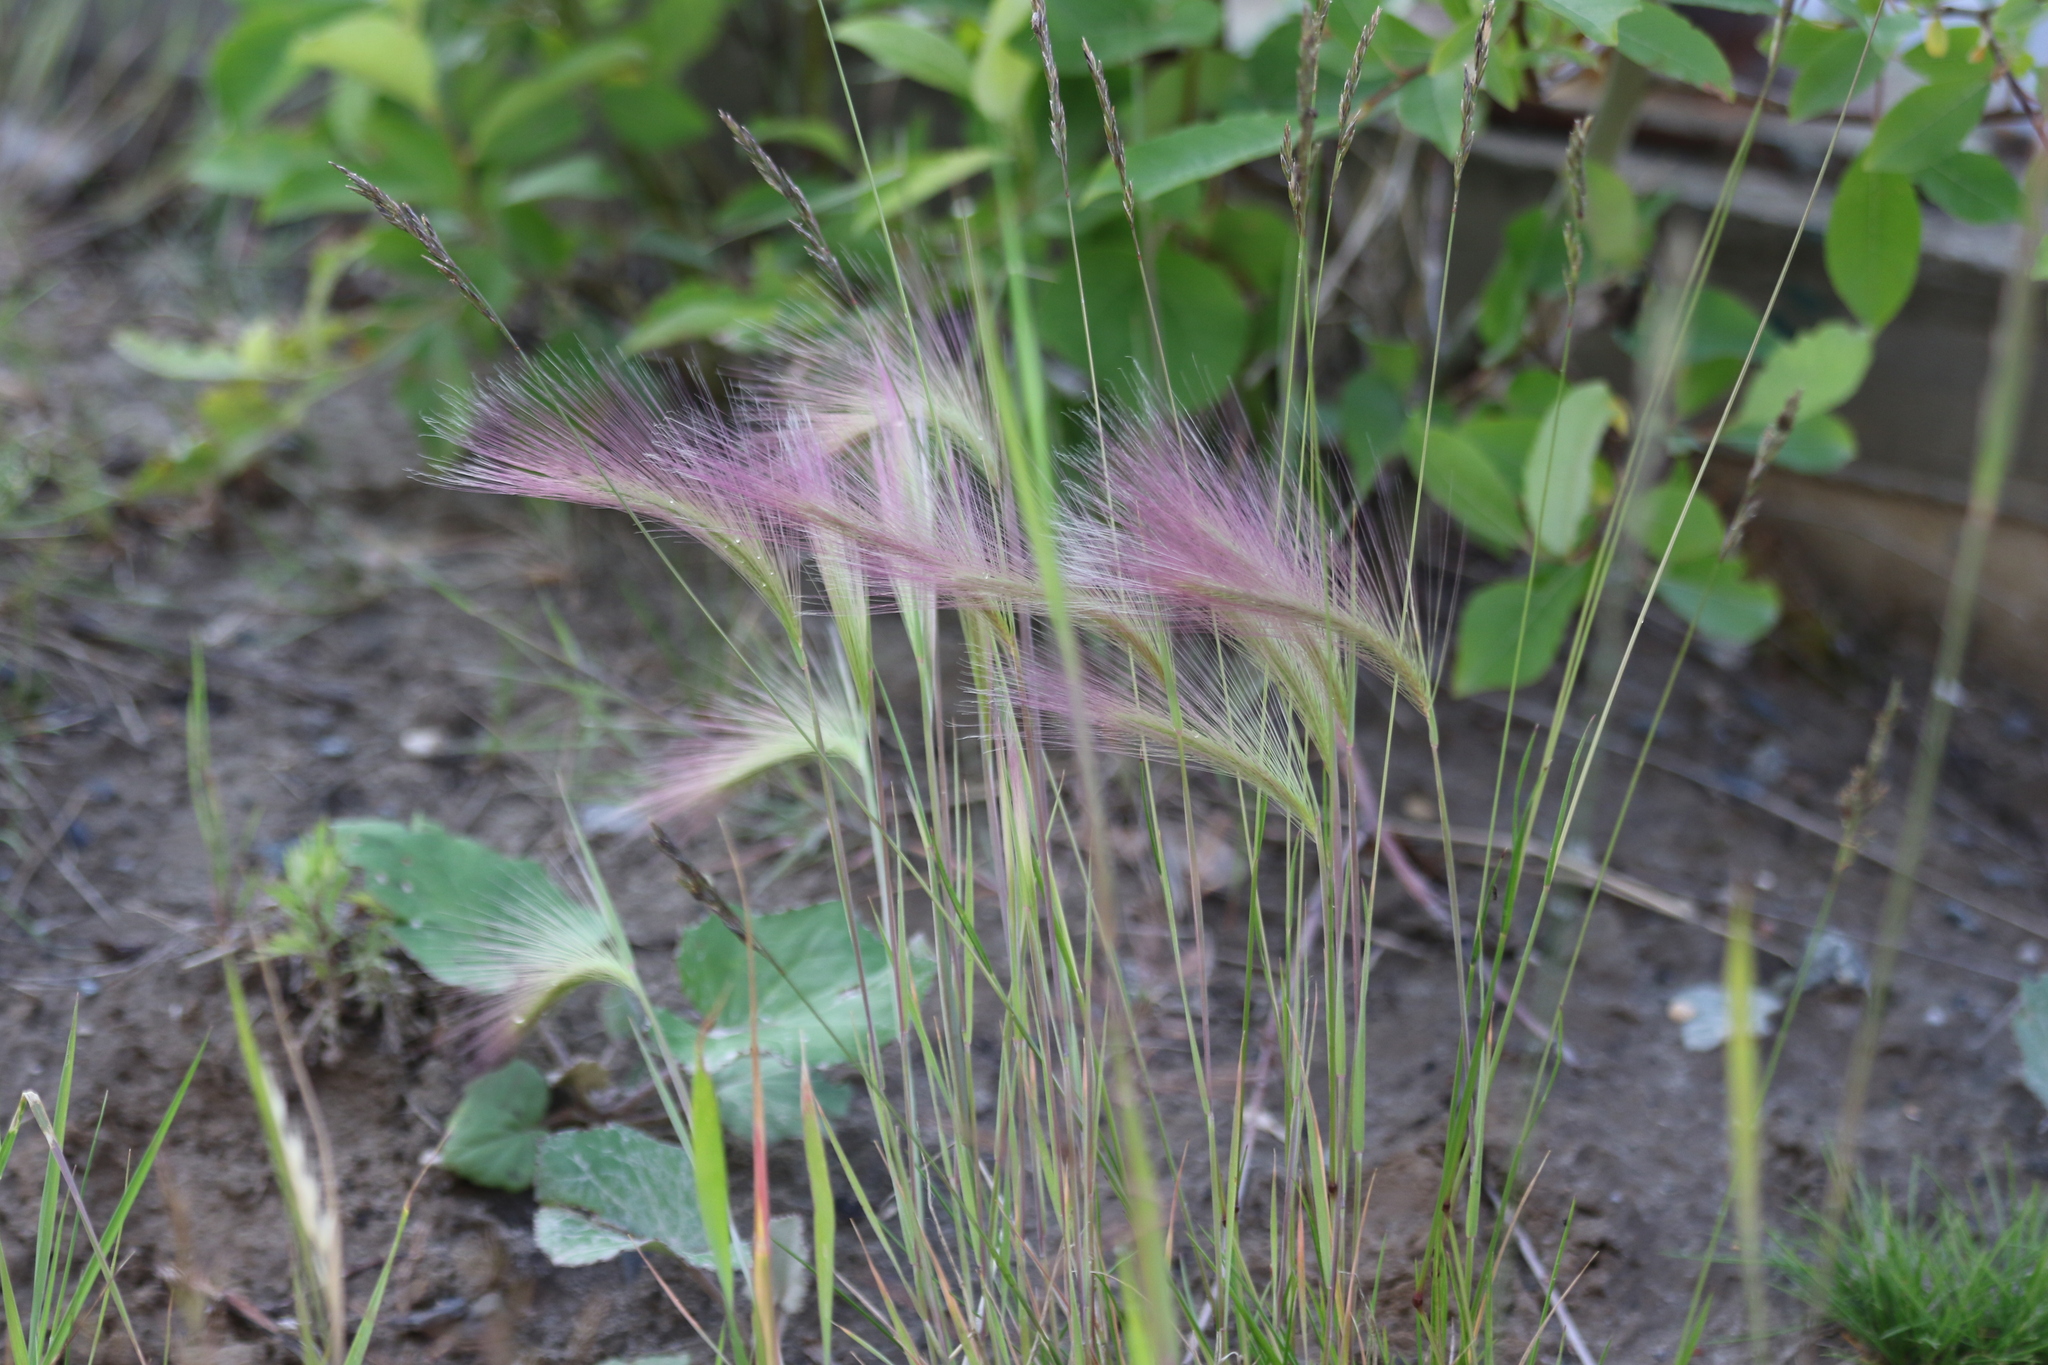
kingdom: Plantae
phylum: Tracheophyta
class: Liliopsida
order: Poales
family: Poaceae
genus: Hordeum
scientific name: Hordeum jubatum
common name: Foxtail barley
